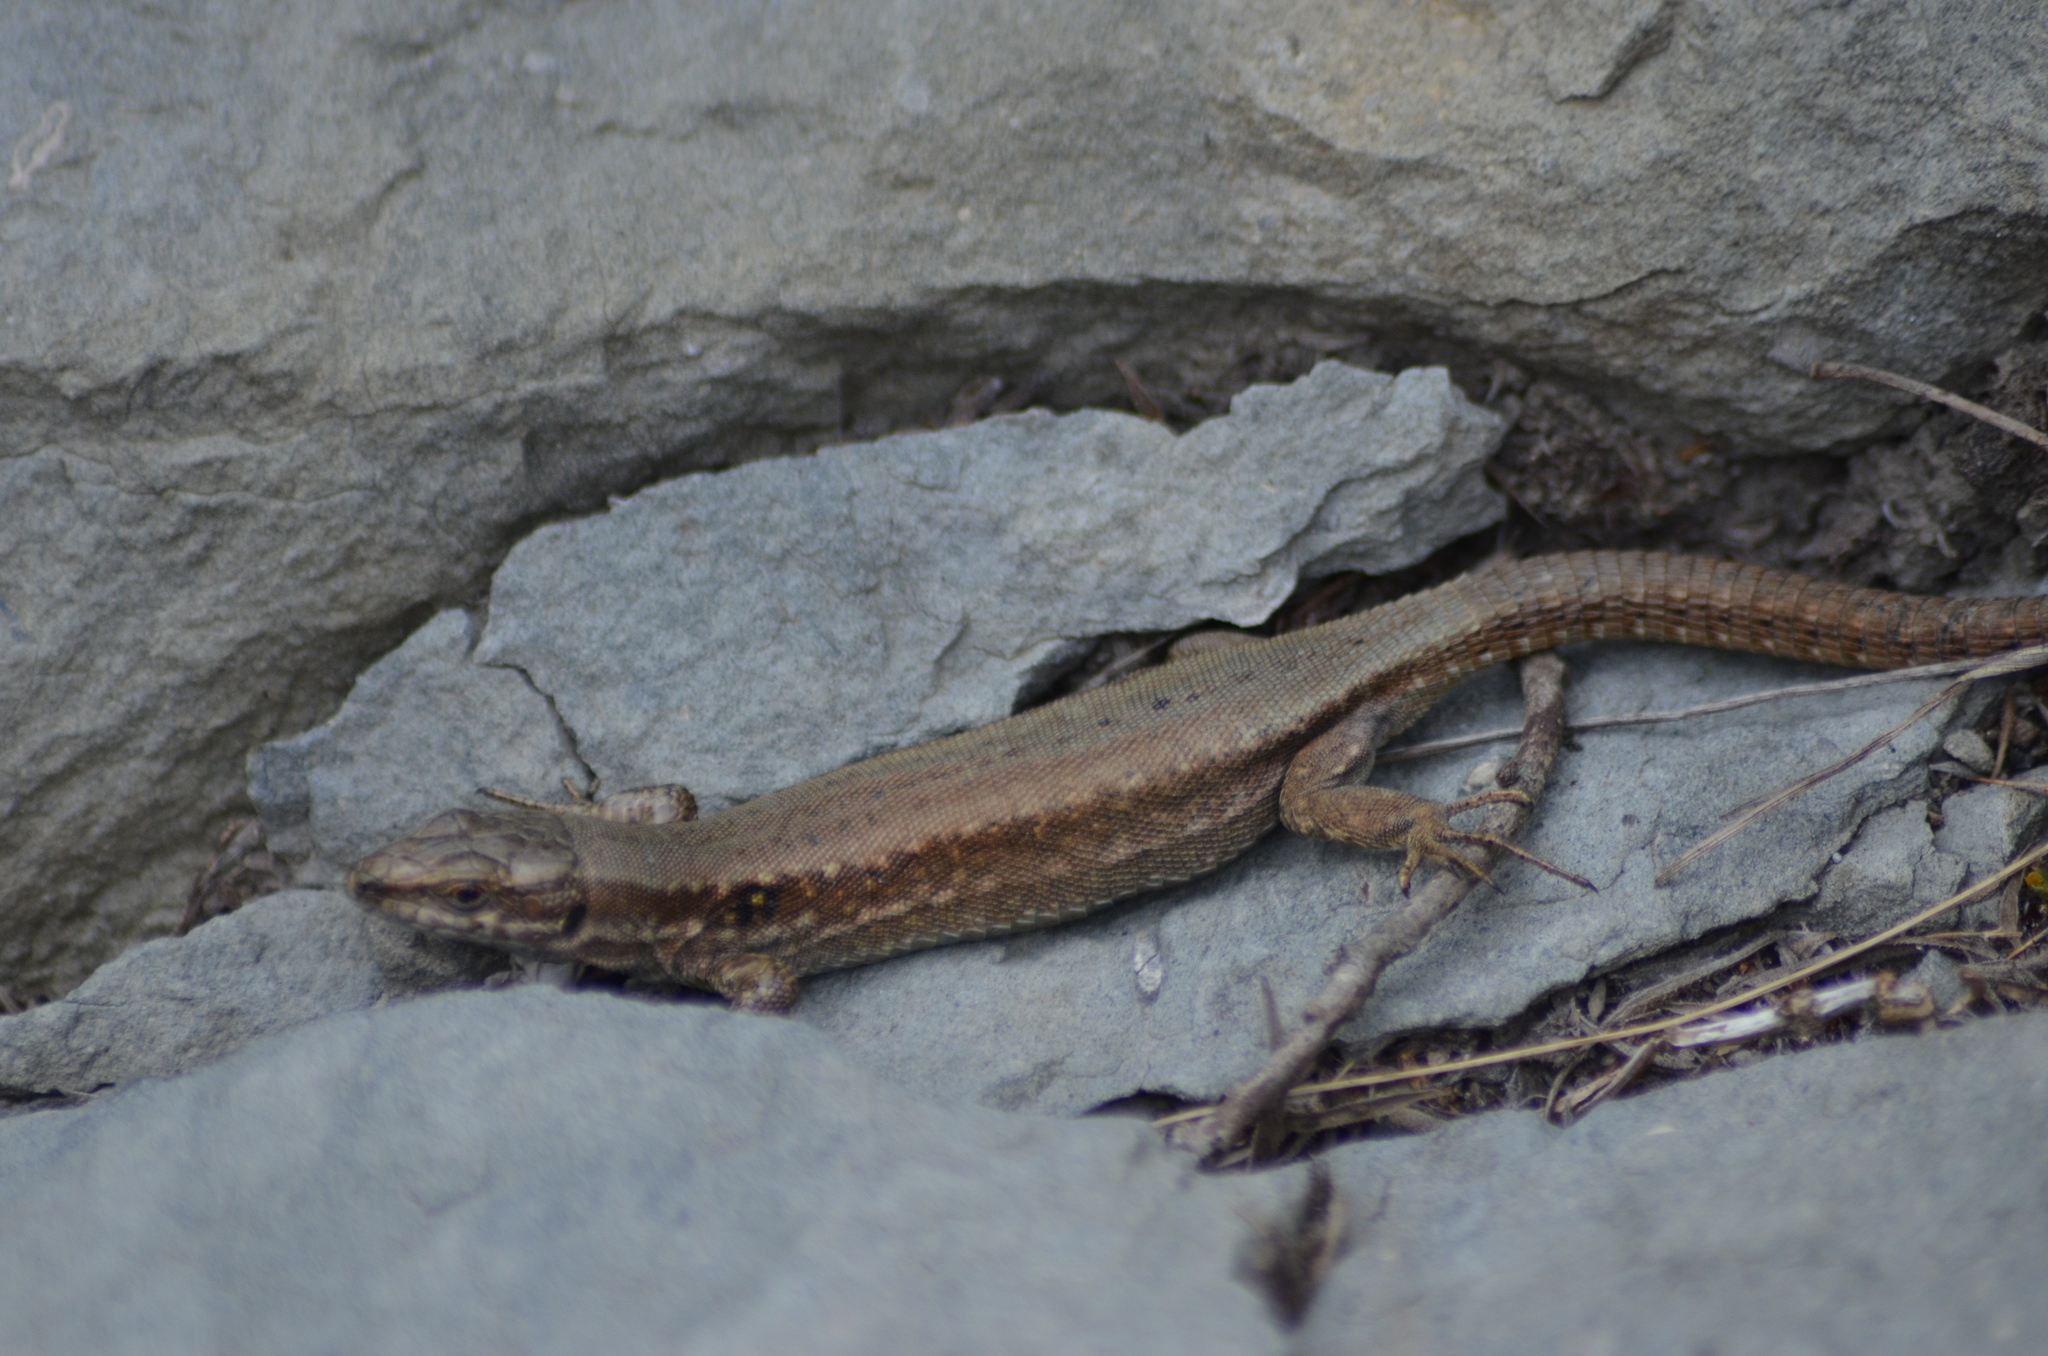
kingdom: Animalia
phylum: Chordata
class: Squamata
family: Lacertidae
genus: Podarcis
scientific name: Podarcis muralis
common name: Common wall lizard
